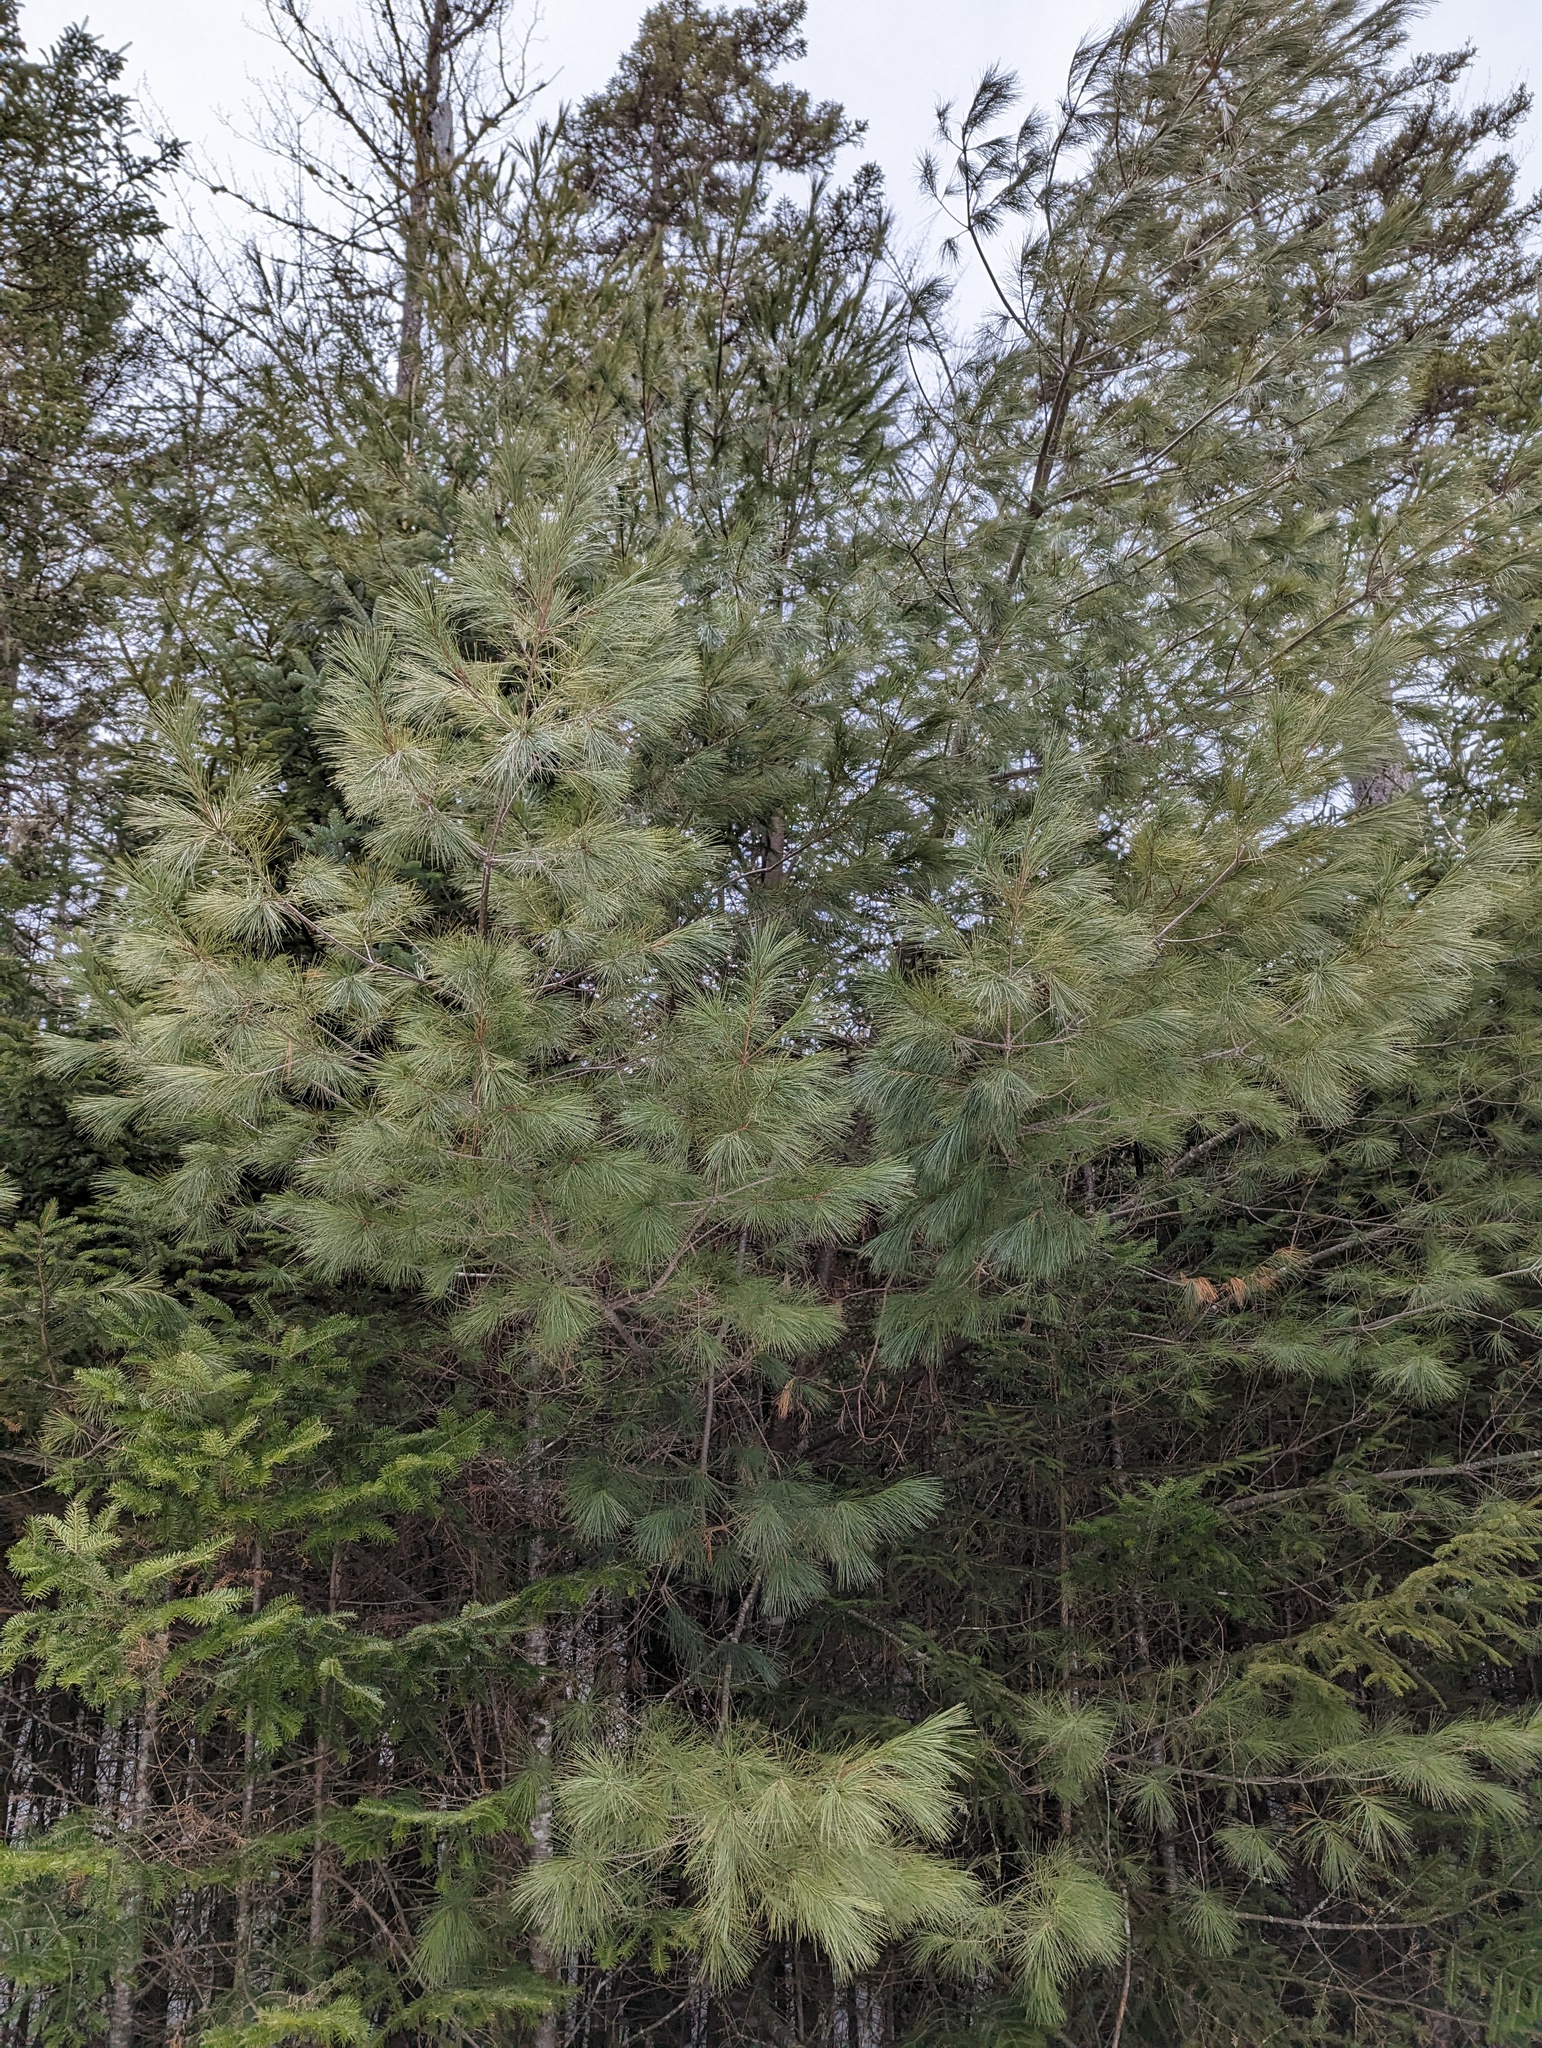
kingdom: Plantae
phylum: Tracheophyta
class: Pinopsida
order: Pinales
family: Pinaceae
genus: Pinus
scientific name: Pinus strobus
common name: Weymouth pine
